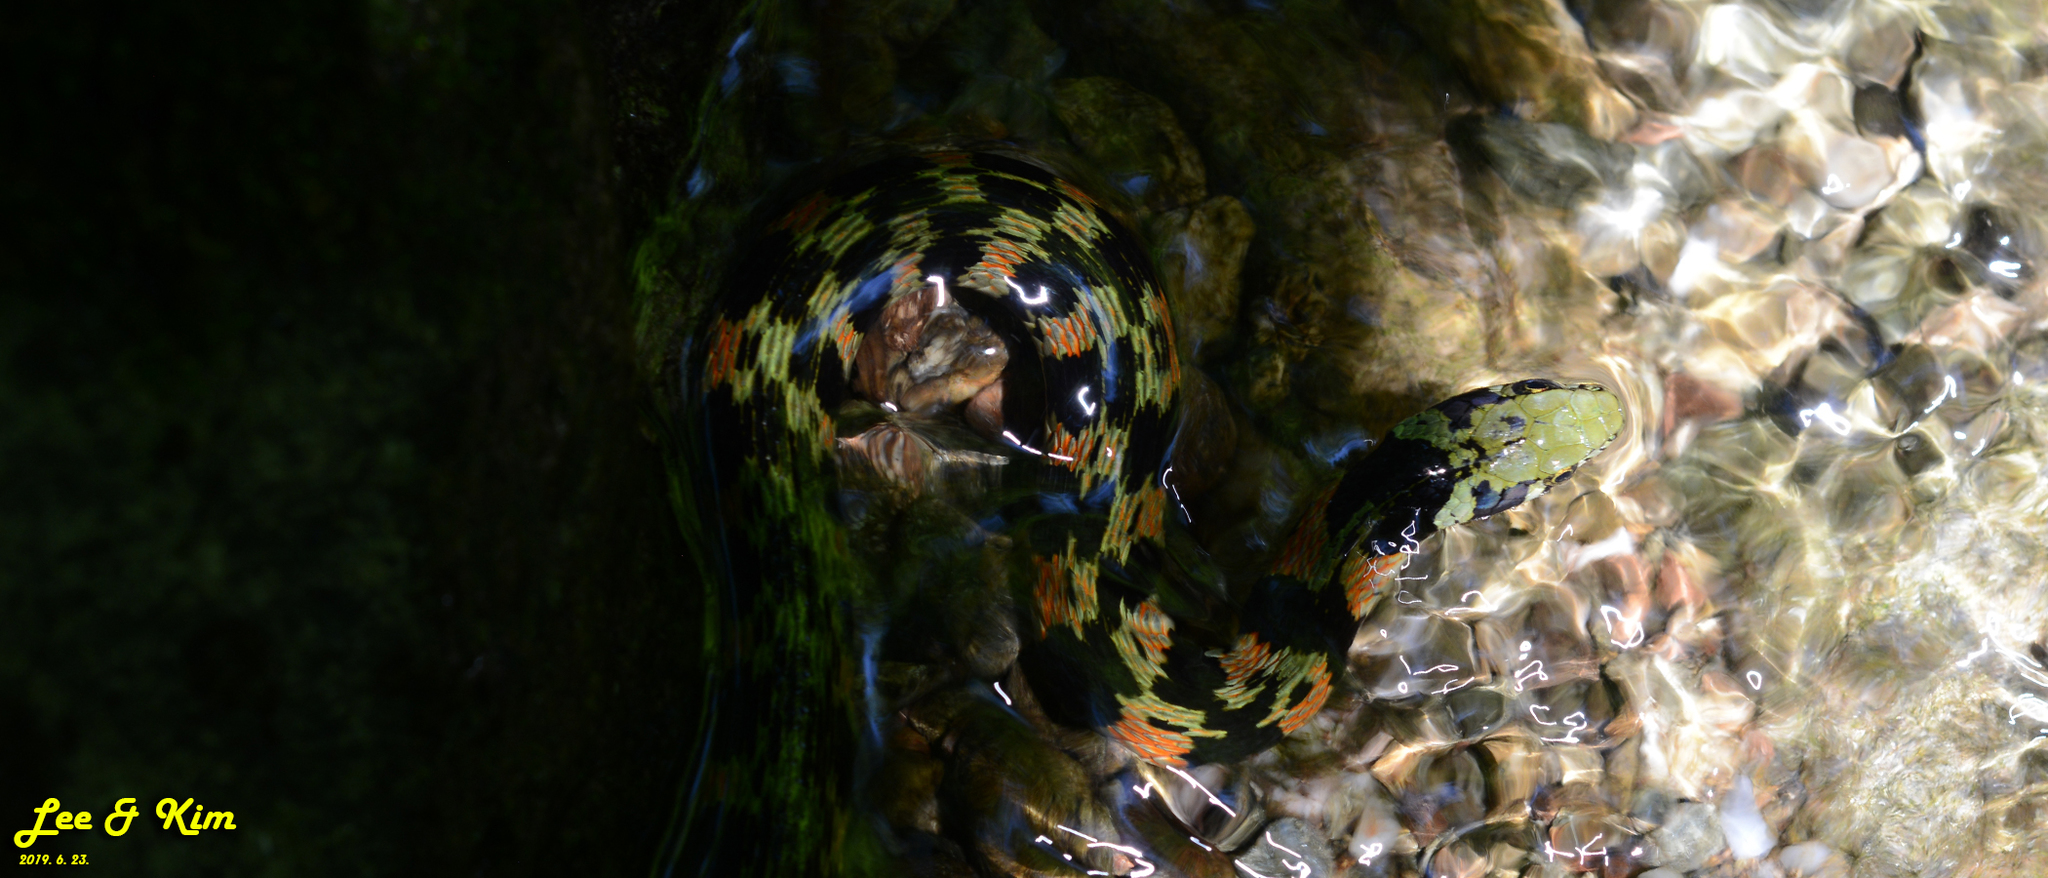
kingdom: Animalia
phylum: Chordata
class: Squamata
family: Colubridae
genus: Rhabdophis
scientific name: Rhabdophis tigrinus
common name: Tiger keelback
